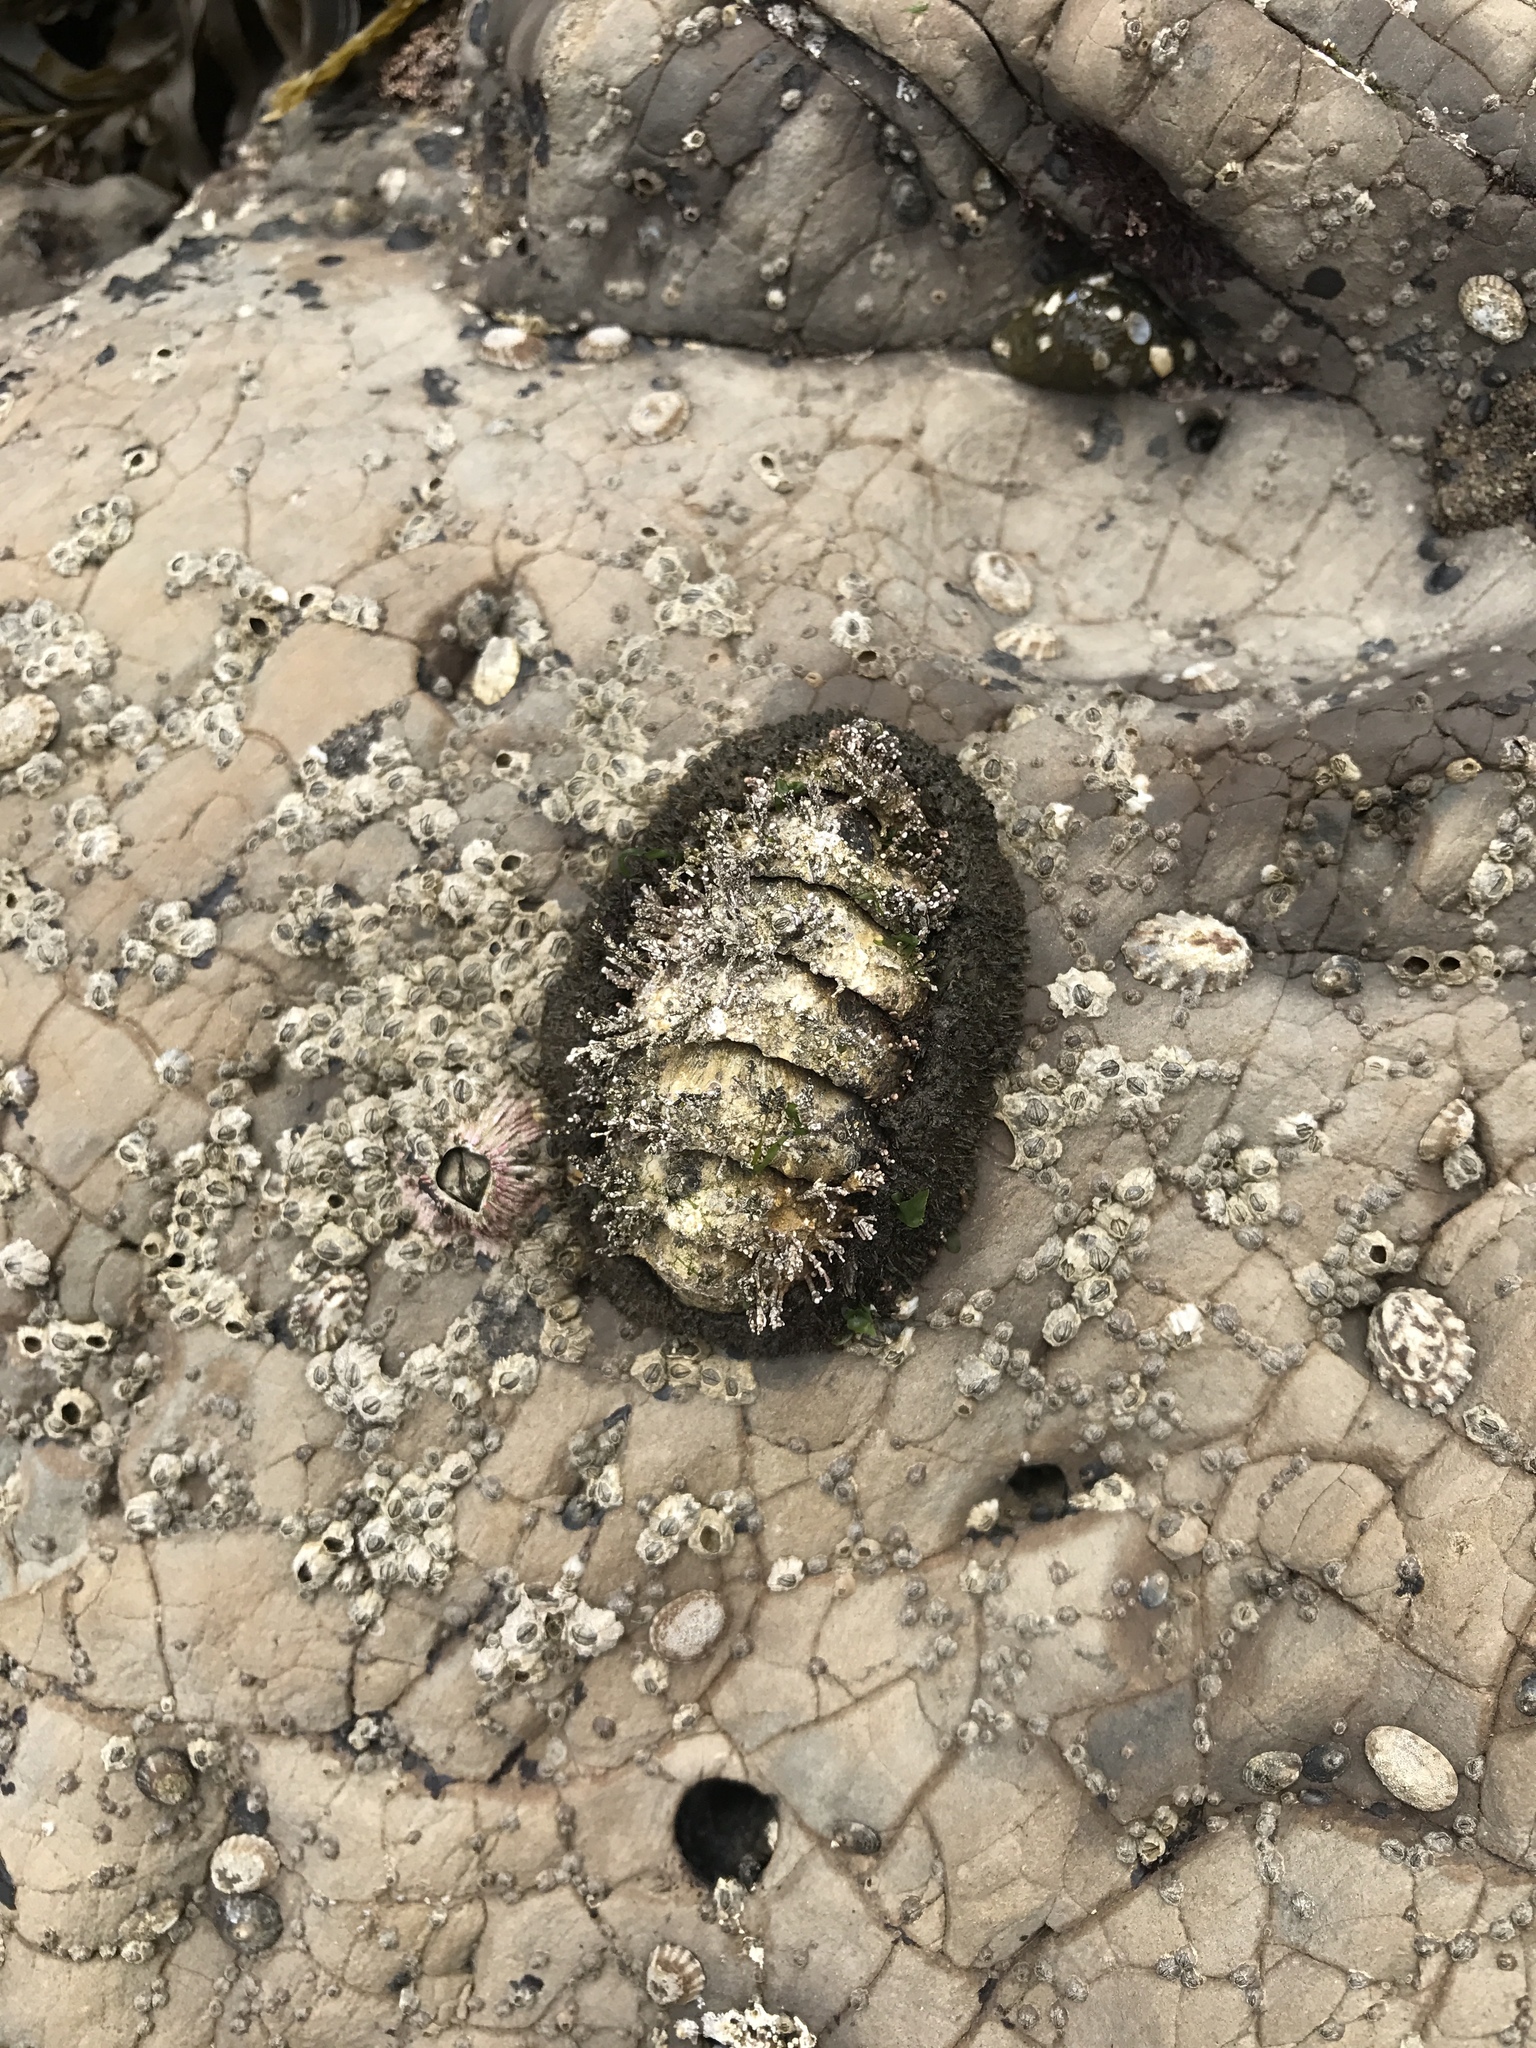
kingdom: Animalia
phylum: Mollusca
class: Polyplacophora
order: Chitonida
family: Mopaliidae
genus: Mopalia
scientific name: Mopalia muscosa
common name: Mossy chiton
